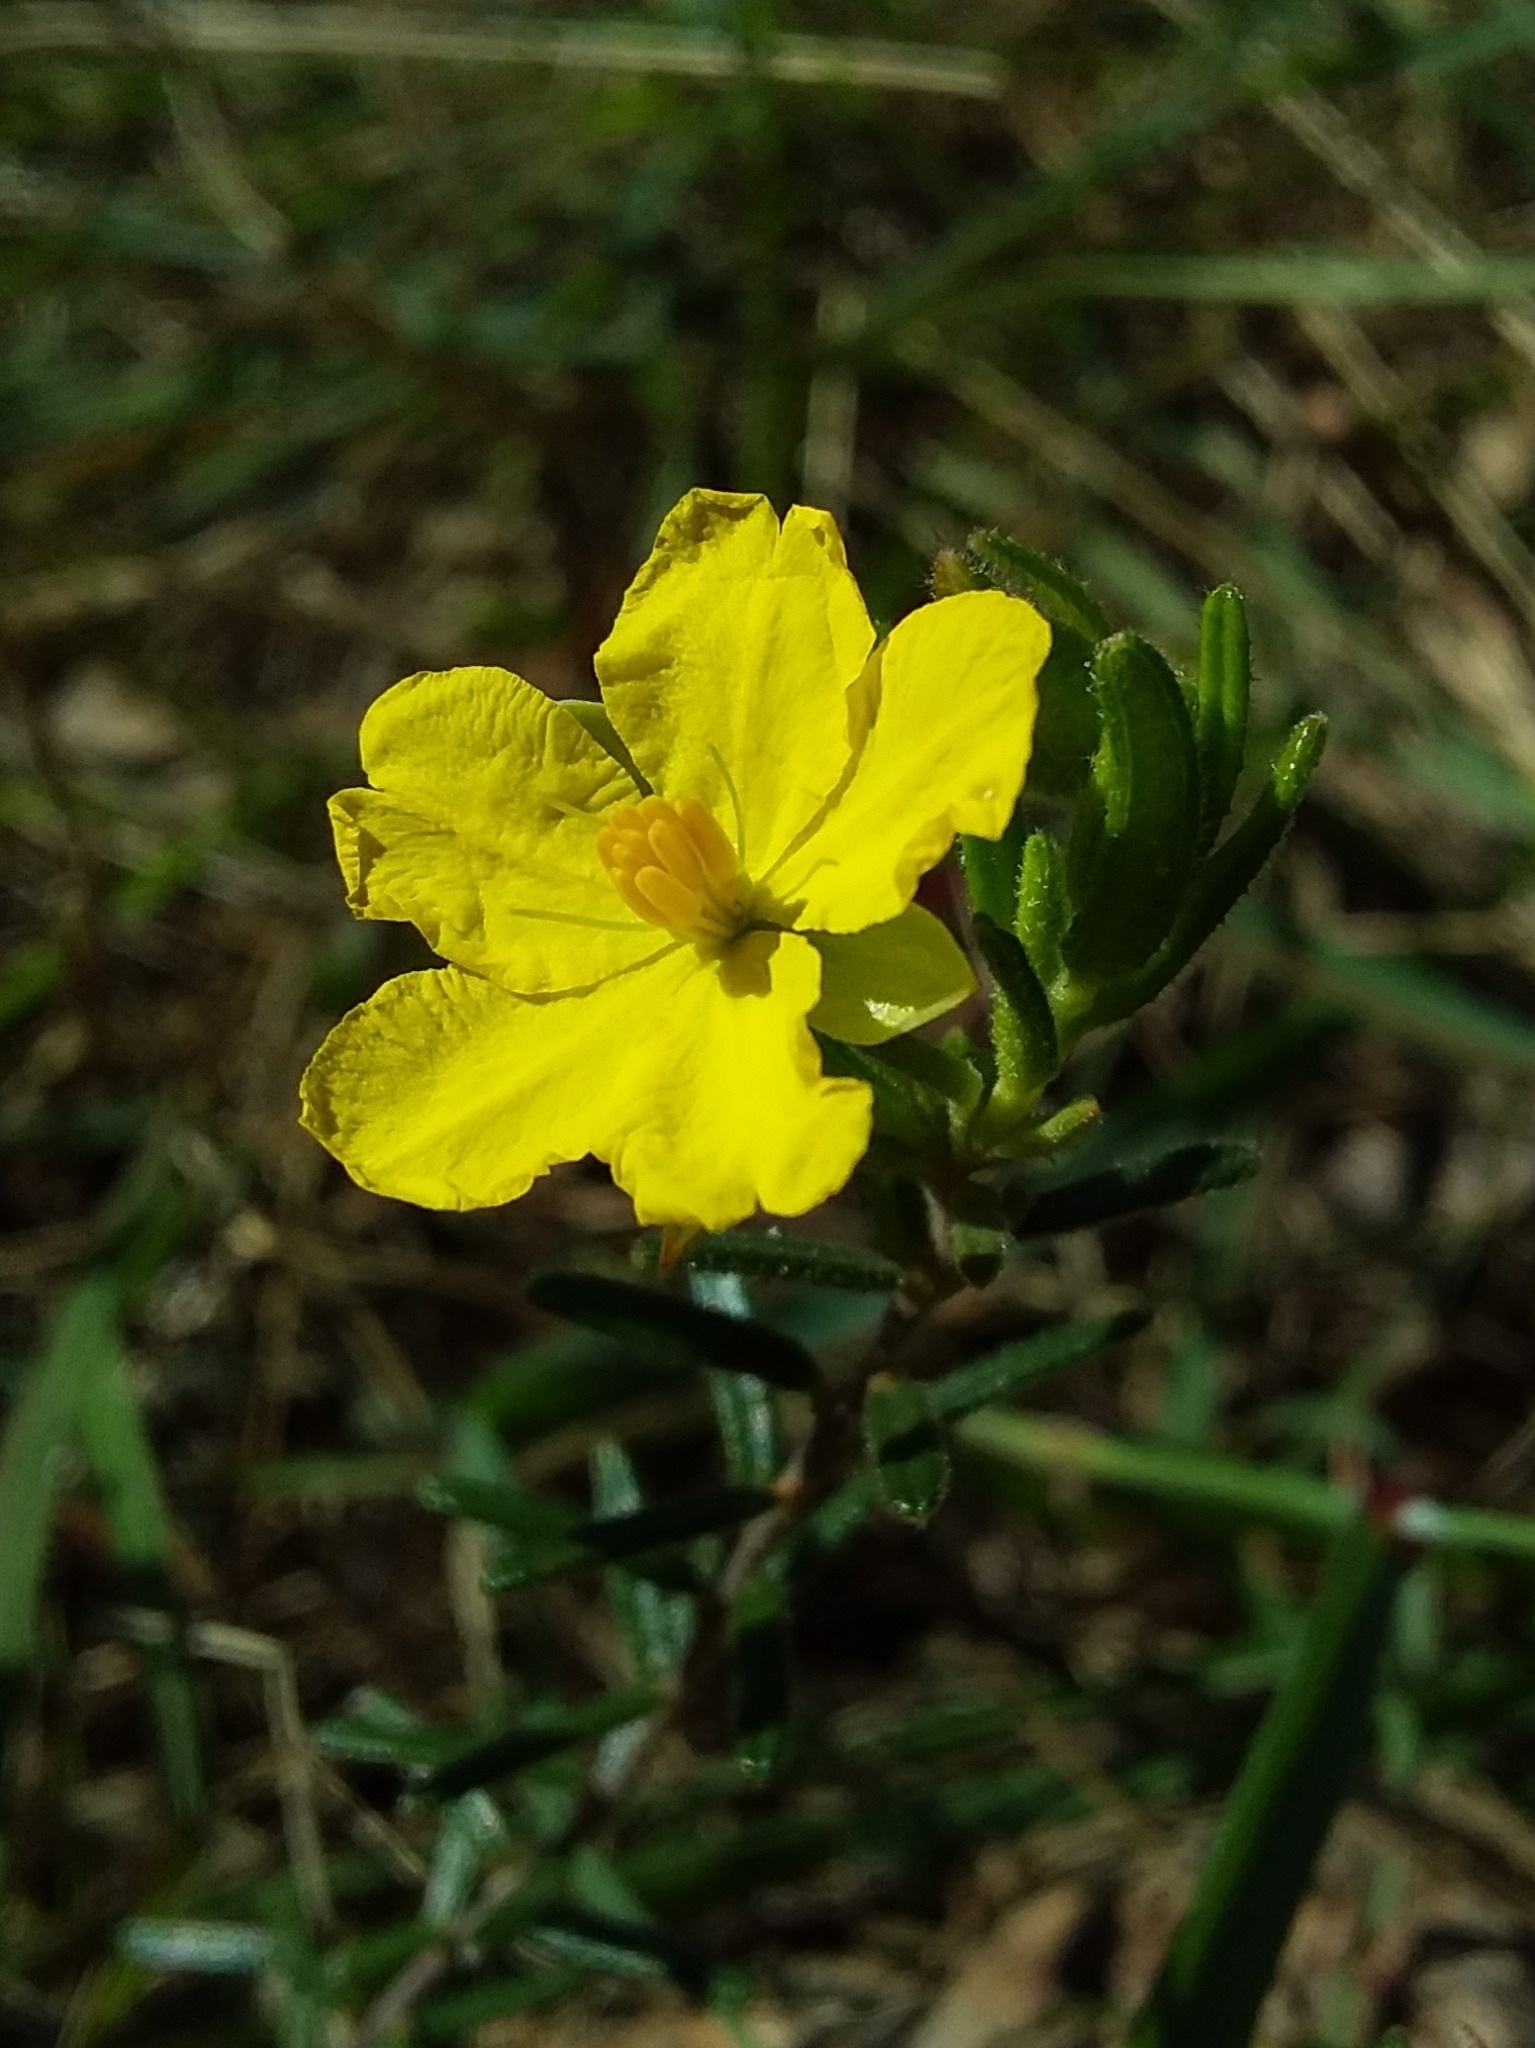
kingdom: Plantae
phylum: Tracheophyta
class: Magnoliopsida
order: Dilleniales
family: Dilleniaceae
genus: Hibbertia
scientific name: Hibbertia glebosa
